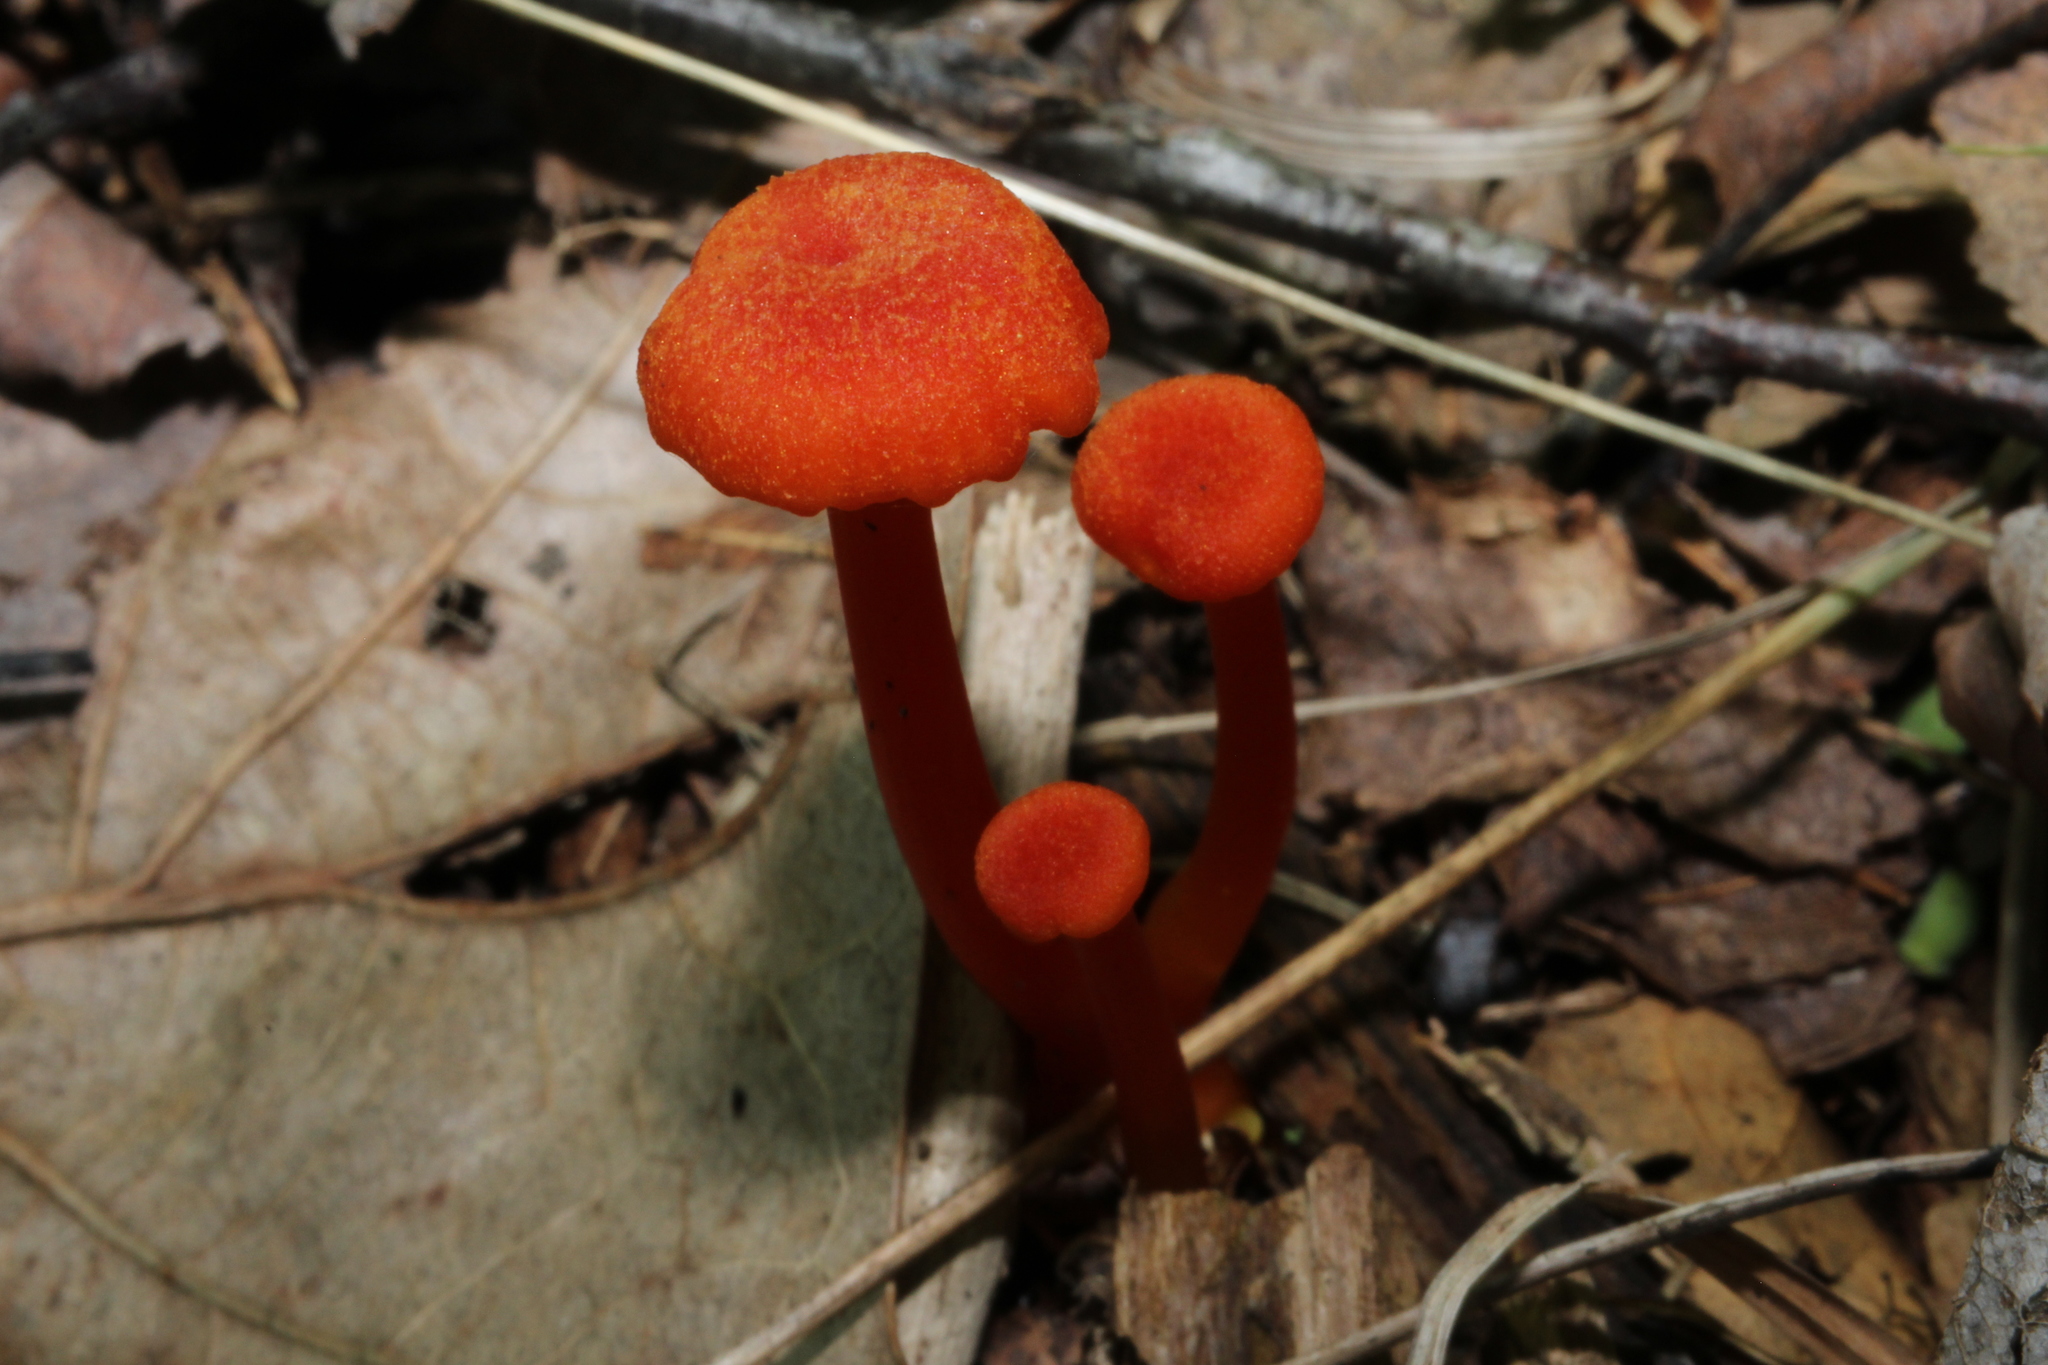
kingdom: Fungi
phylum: Basidiomycota
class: Agaricomycetes
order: Agaricales
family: Hygrophoraceae
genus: Hygrocybe
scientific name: Hygrocybe cantharellus
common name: Goblet waxcap
